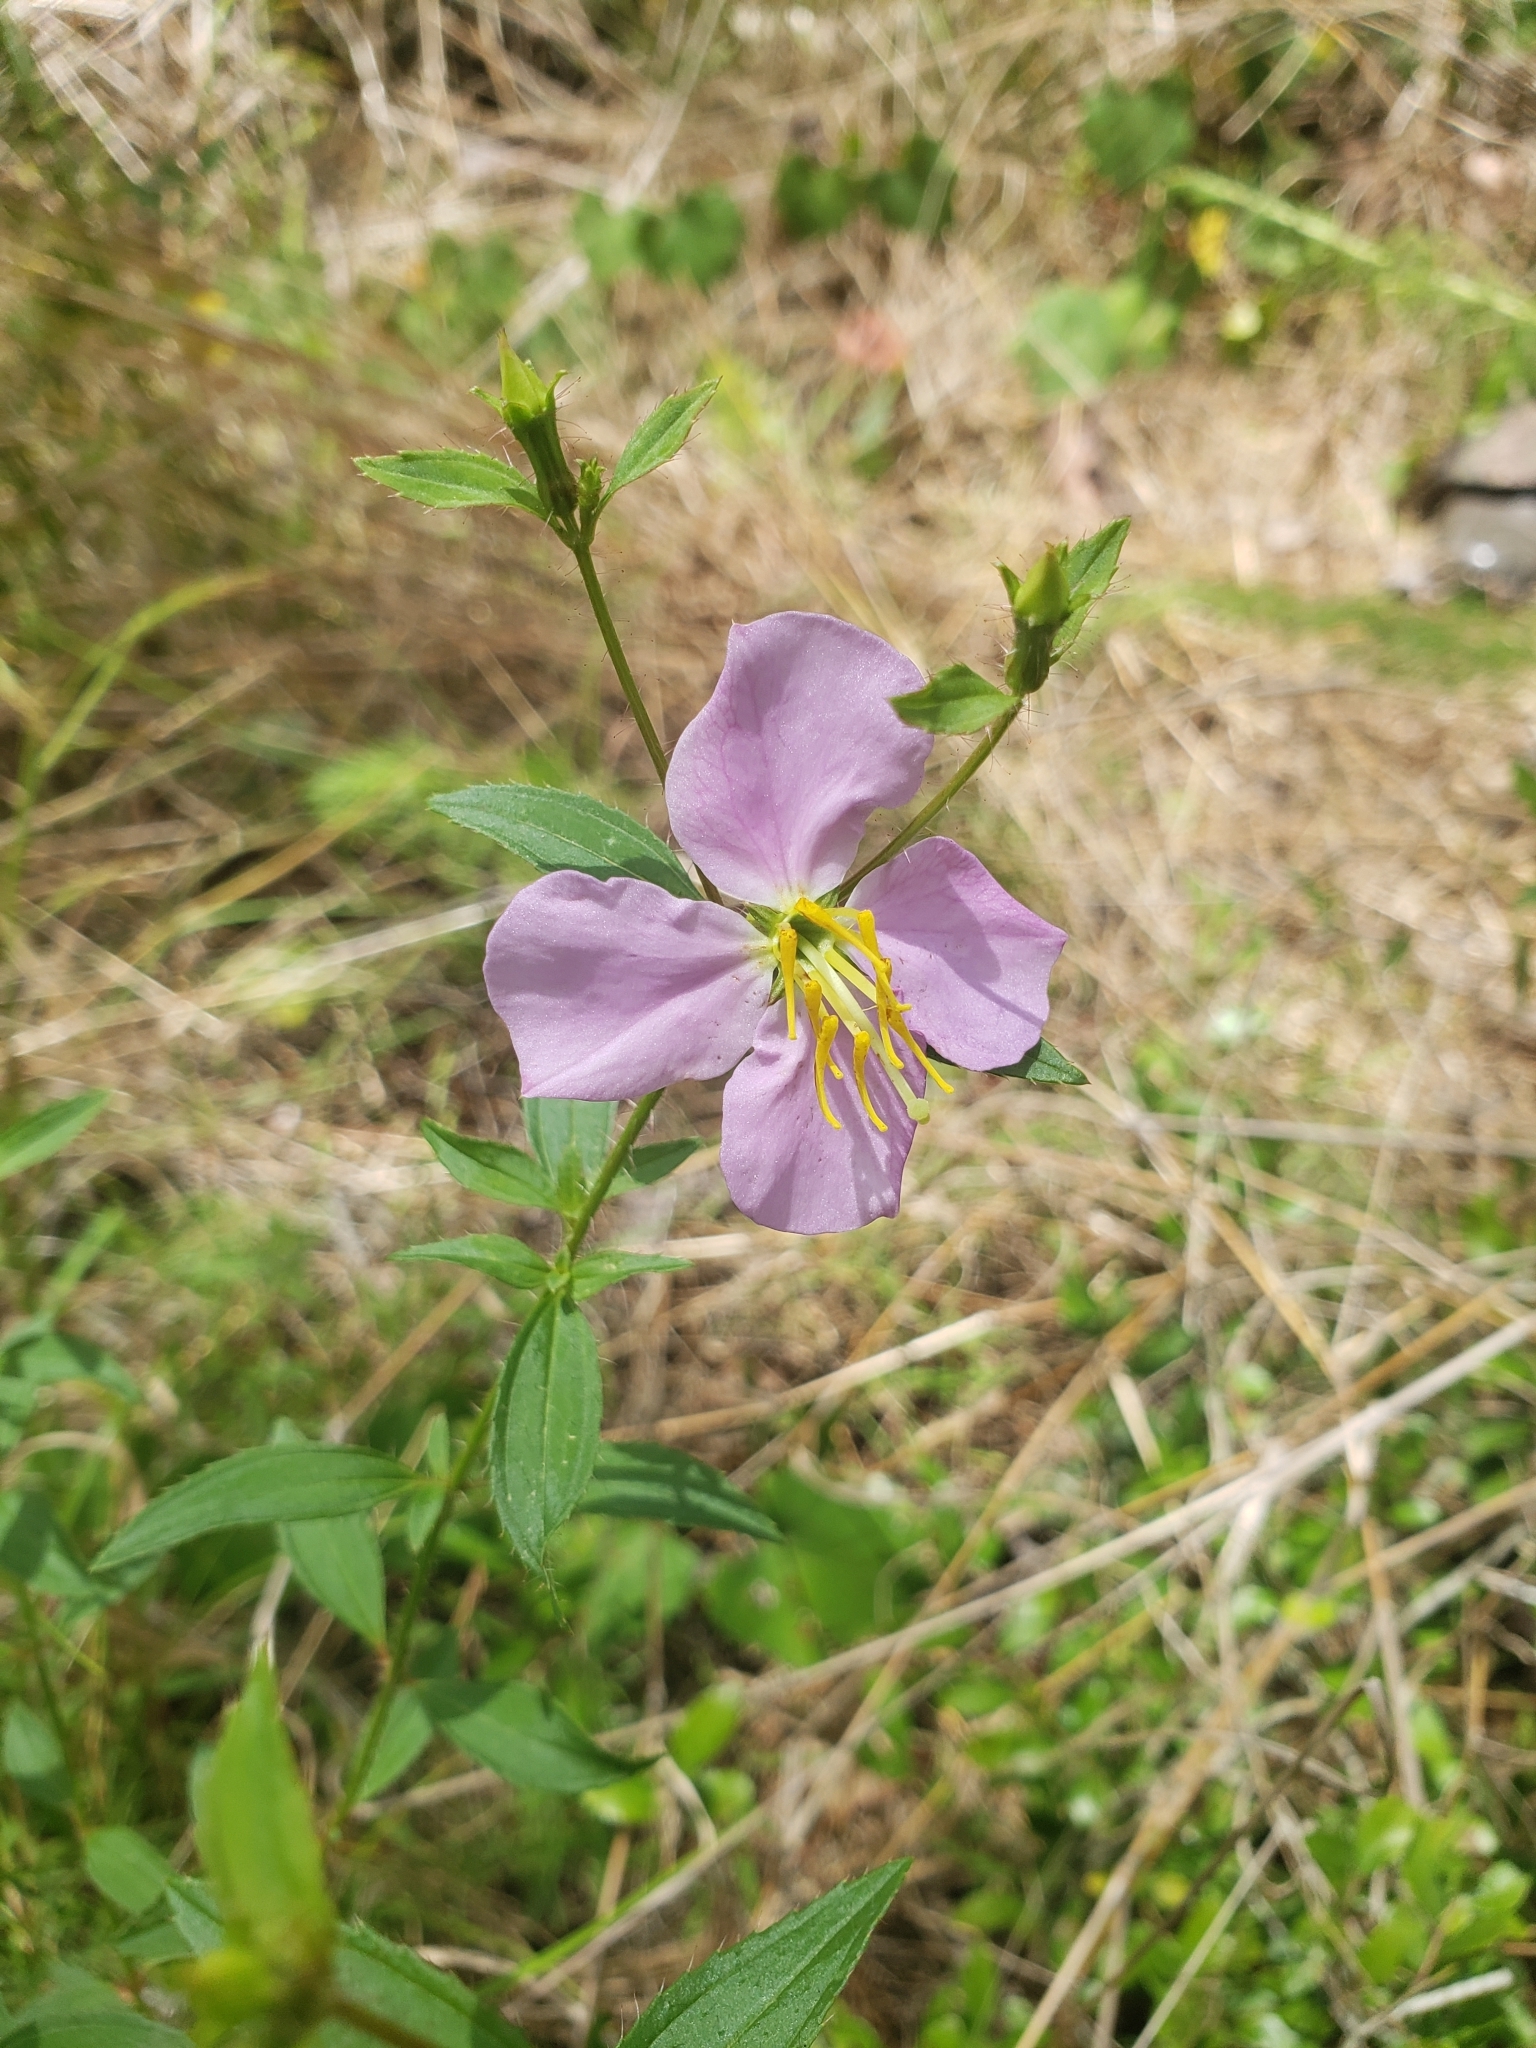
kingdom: Plantae
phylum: Tracheophyta
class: Magnoliopsida
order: Myrtales
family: Melastomataceae
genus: Rhexia
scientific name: Rhexia mariana
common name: Dull meadow-pitcher
